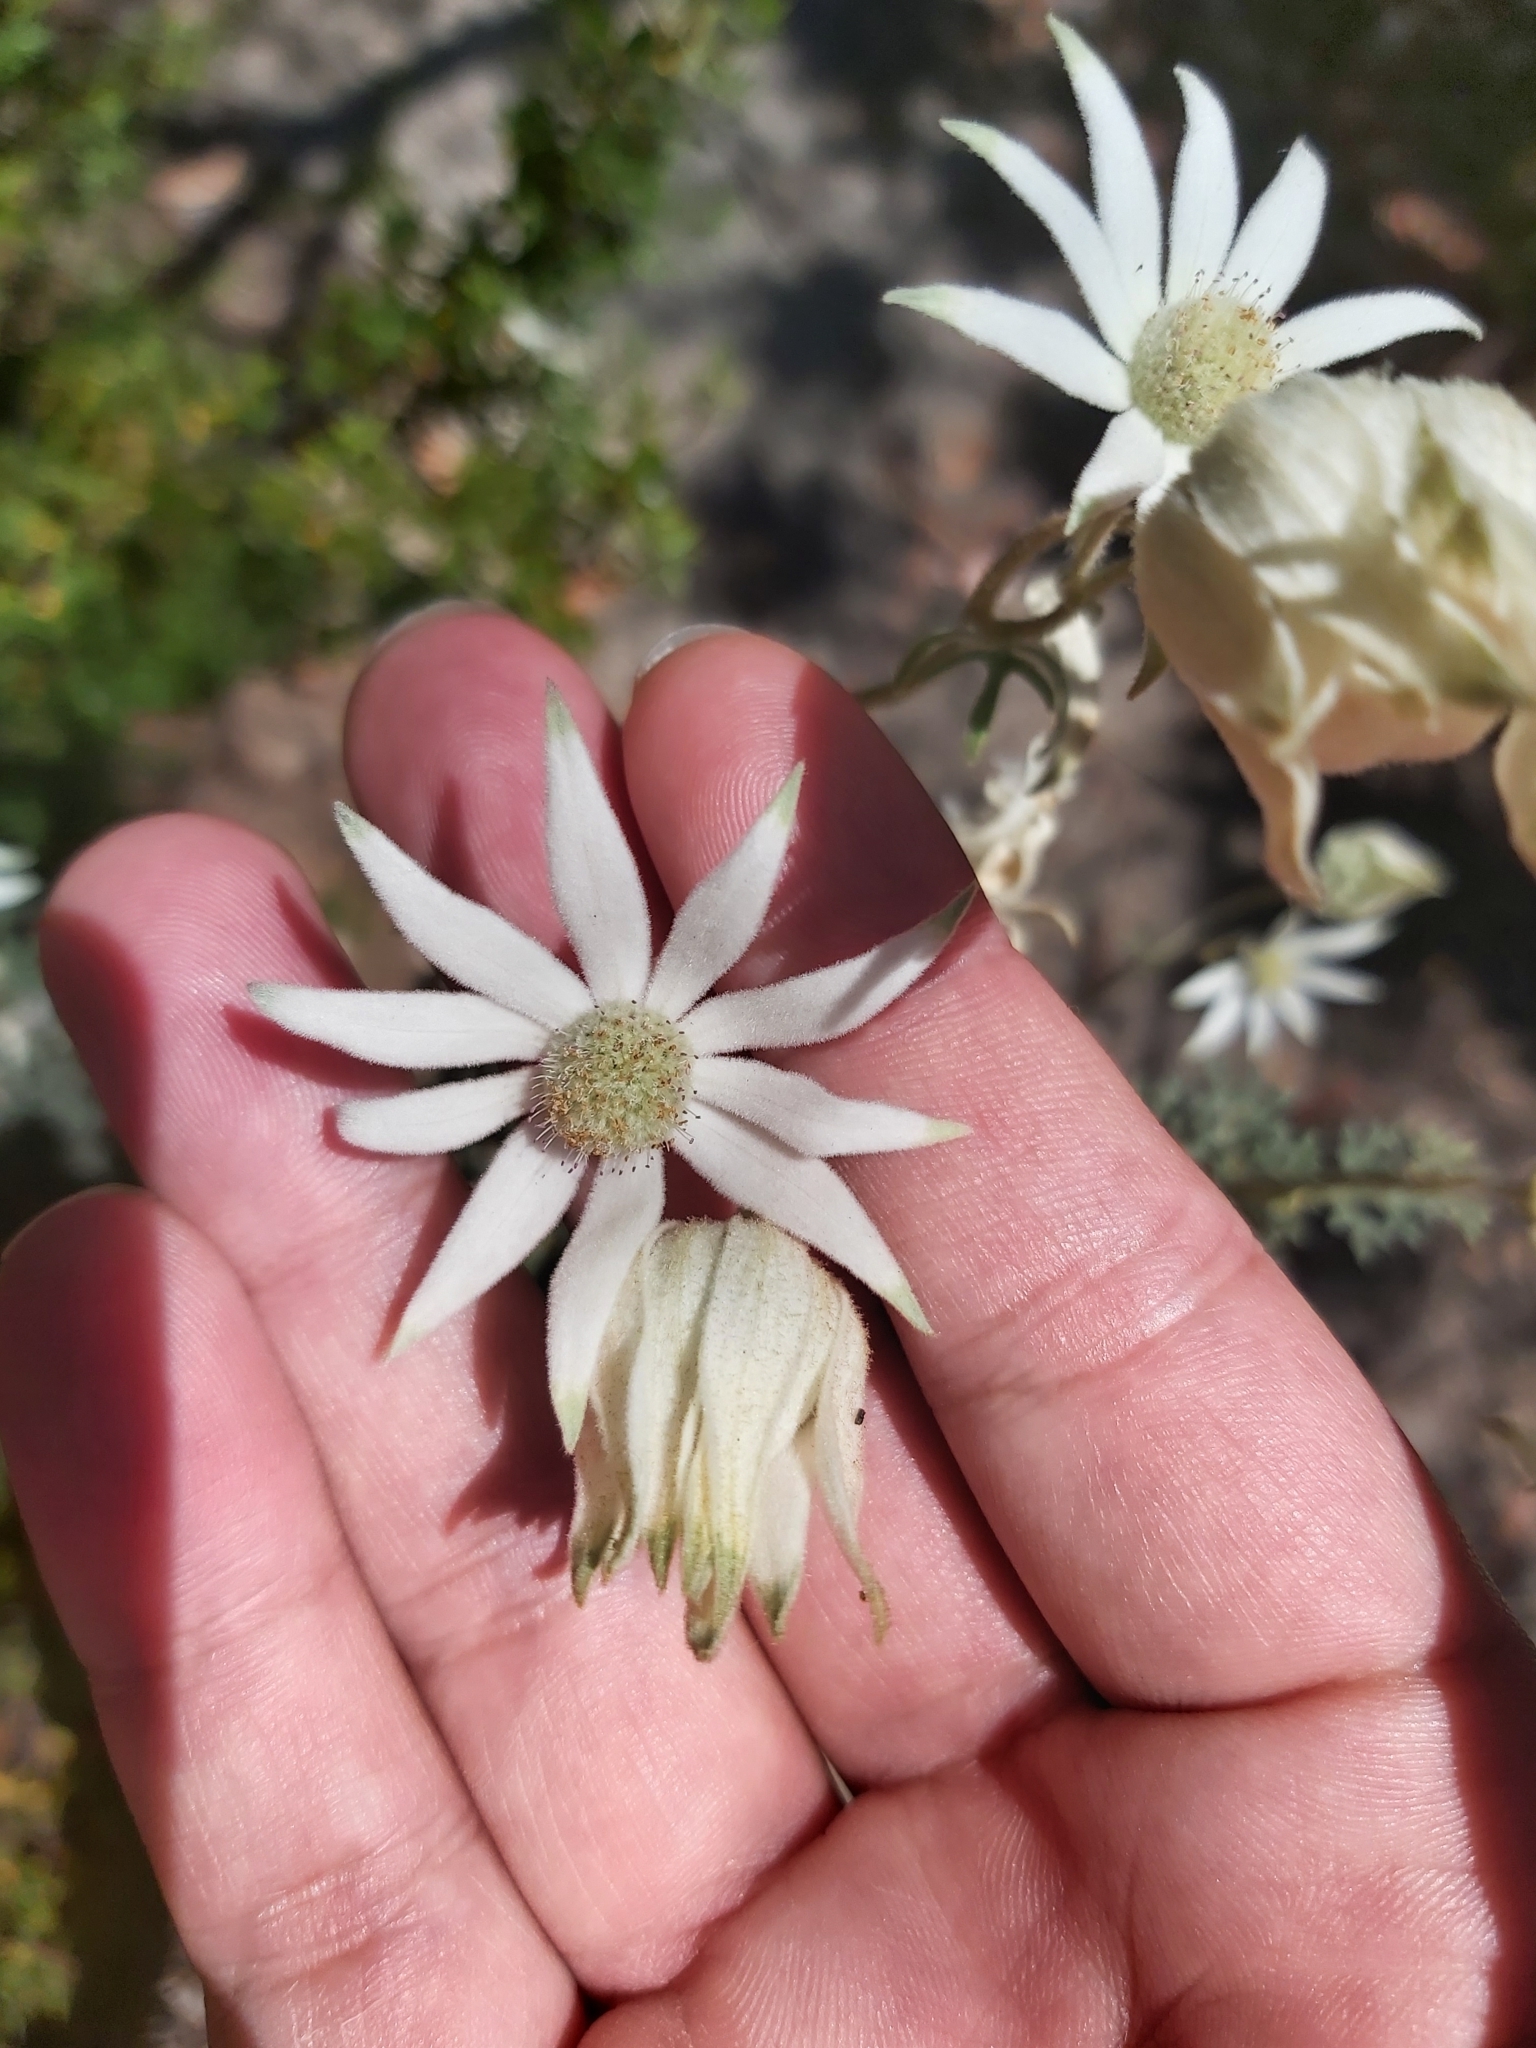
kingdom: Plantae
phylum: Tracheophyta
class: Magnoliopsida
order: Apiales
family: Apiaceae
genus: Actinotus
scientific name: Actinotus helianthi
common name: Flannel-flower
